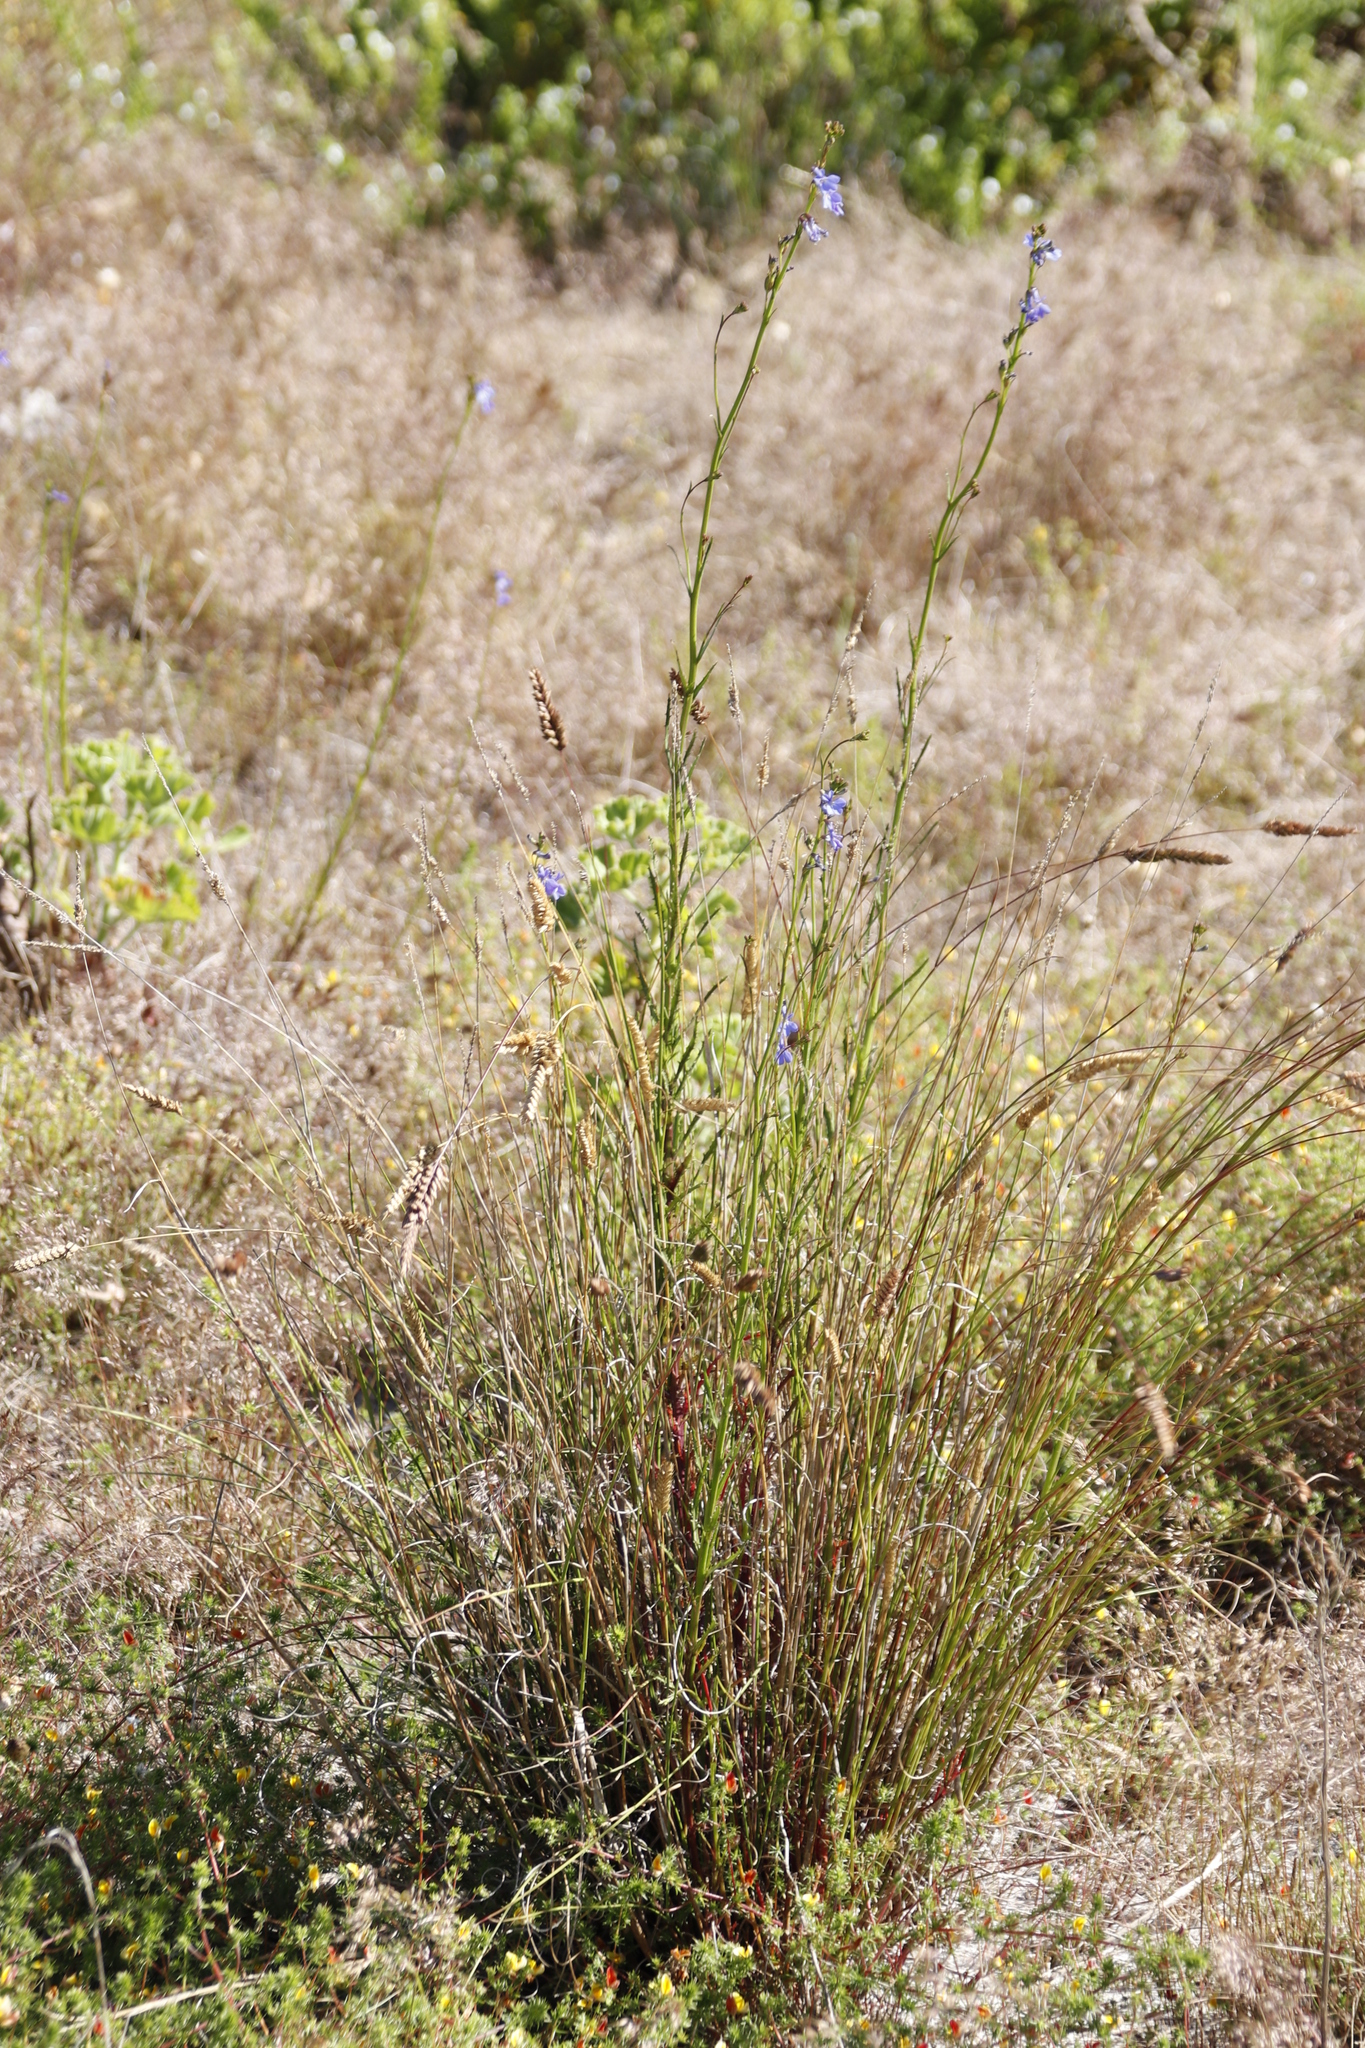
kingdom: Plantae
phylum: Tracheophyta
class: Magnoliopsida
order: Asterales
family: Campanulaceae
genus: Lobelia
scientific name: Lobelia comosa
